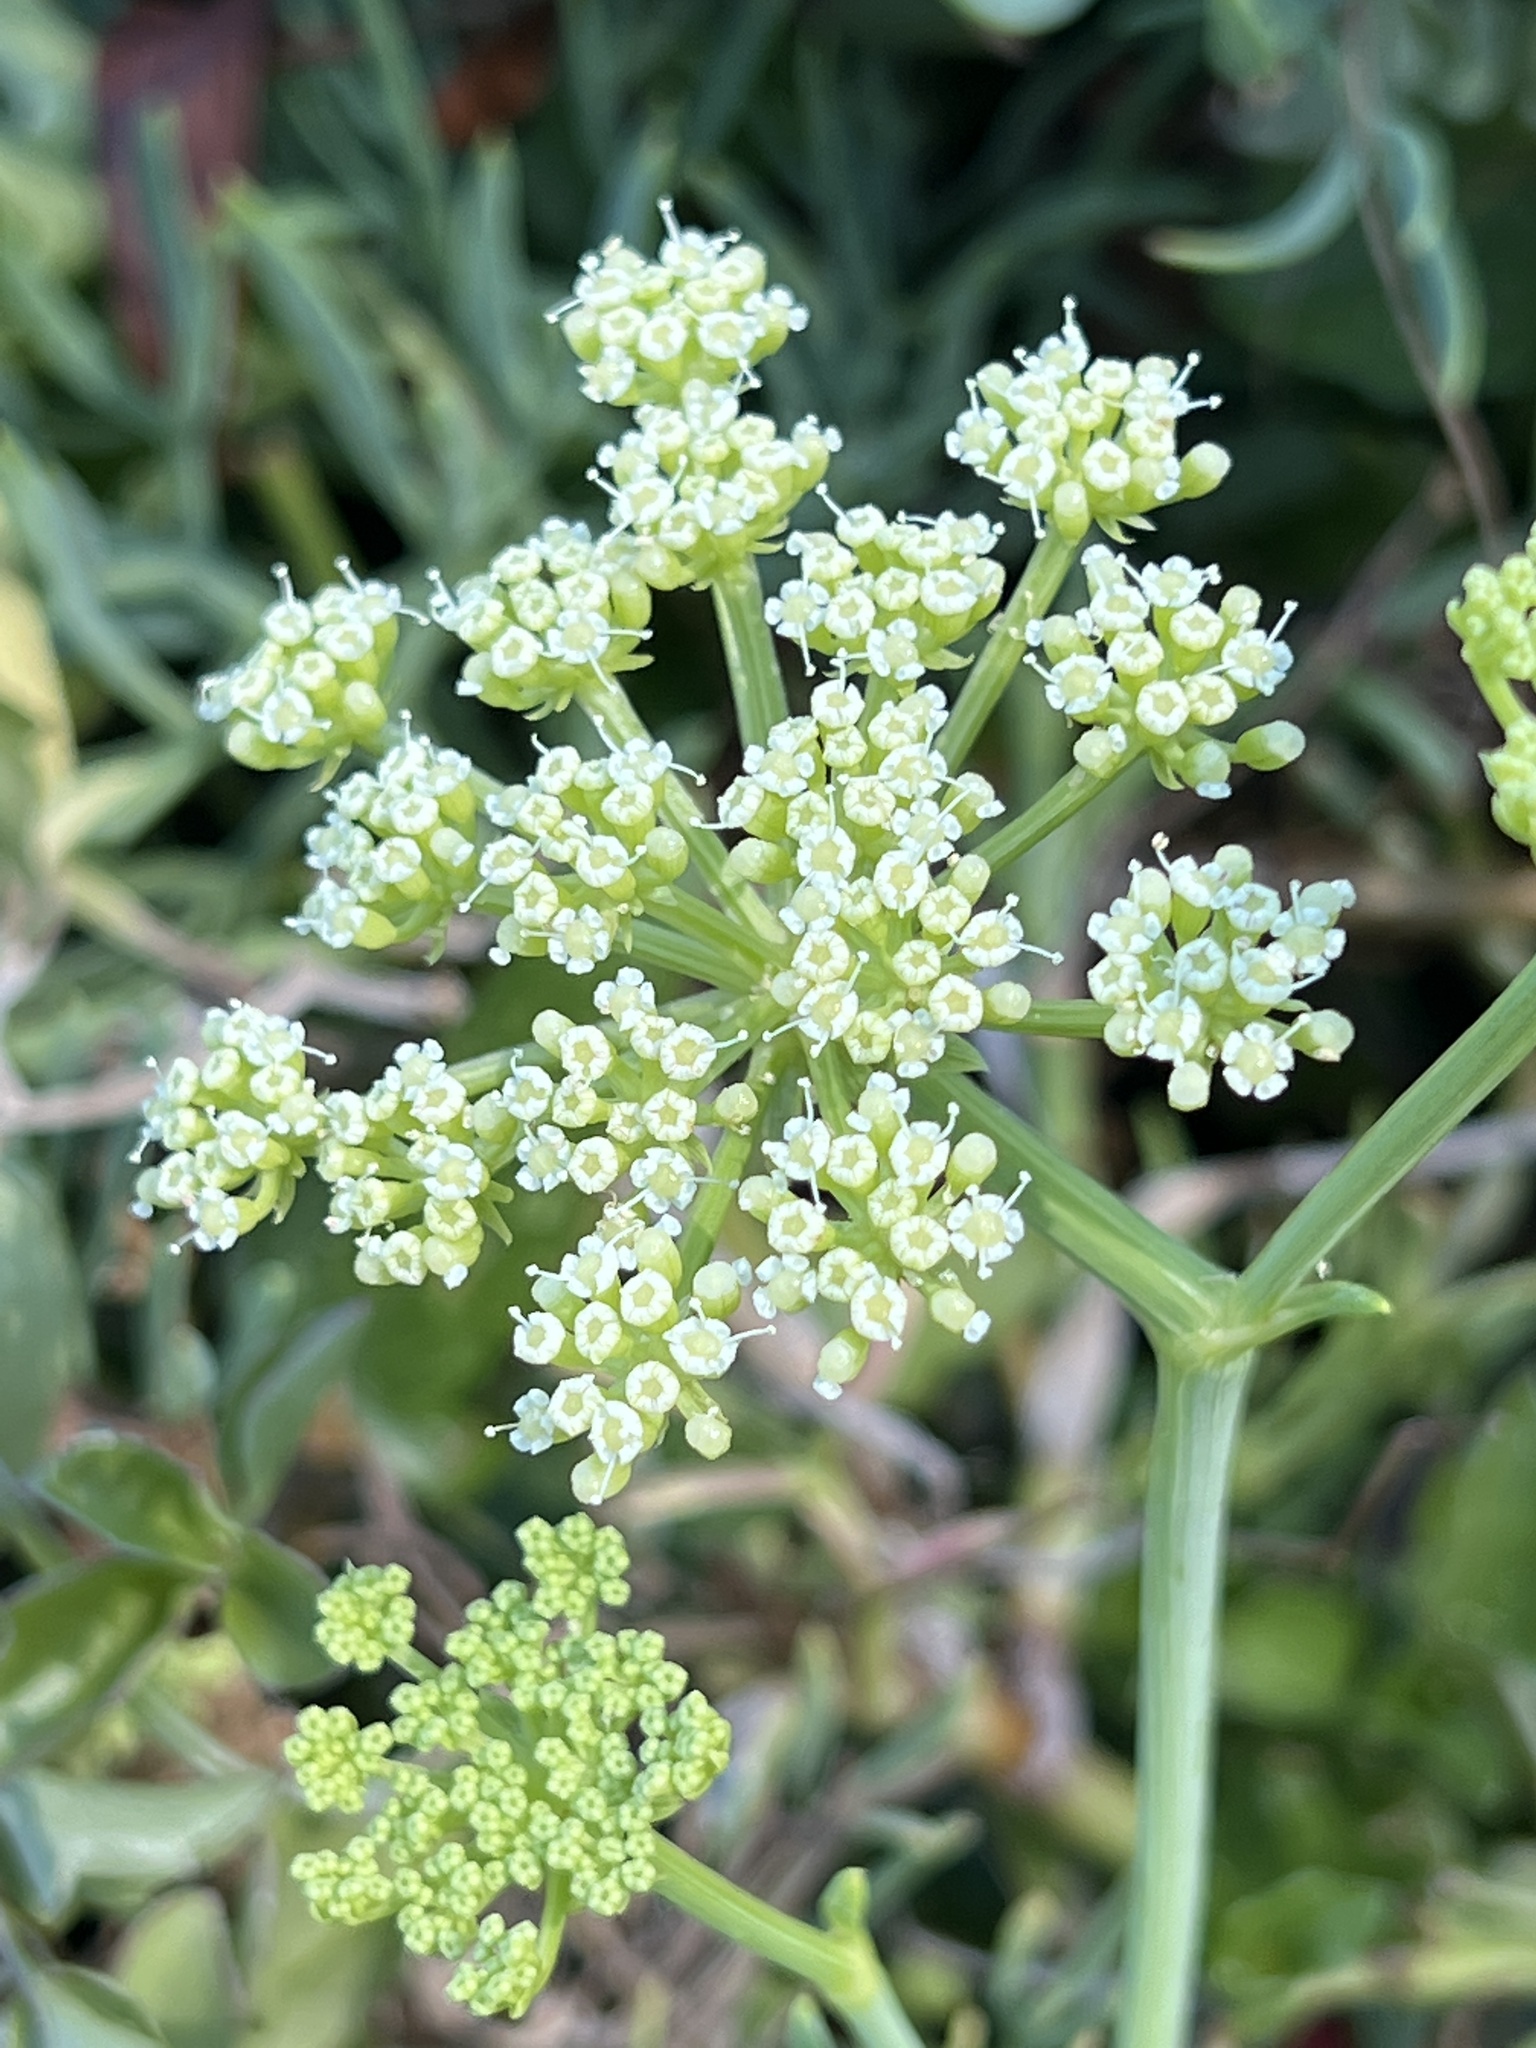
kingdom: Plantae
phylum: Tracheophyta
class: Magnoliopsida
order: Apiales
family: Apiaceae
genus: Crithmum
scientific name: Crithmum maritimum
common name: Rock samphire
